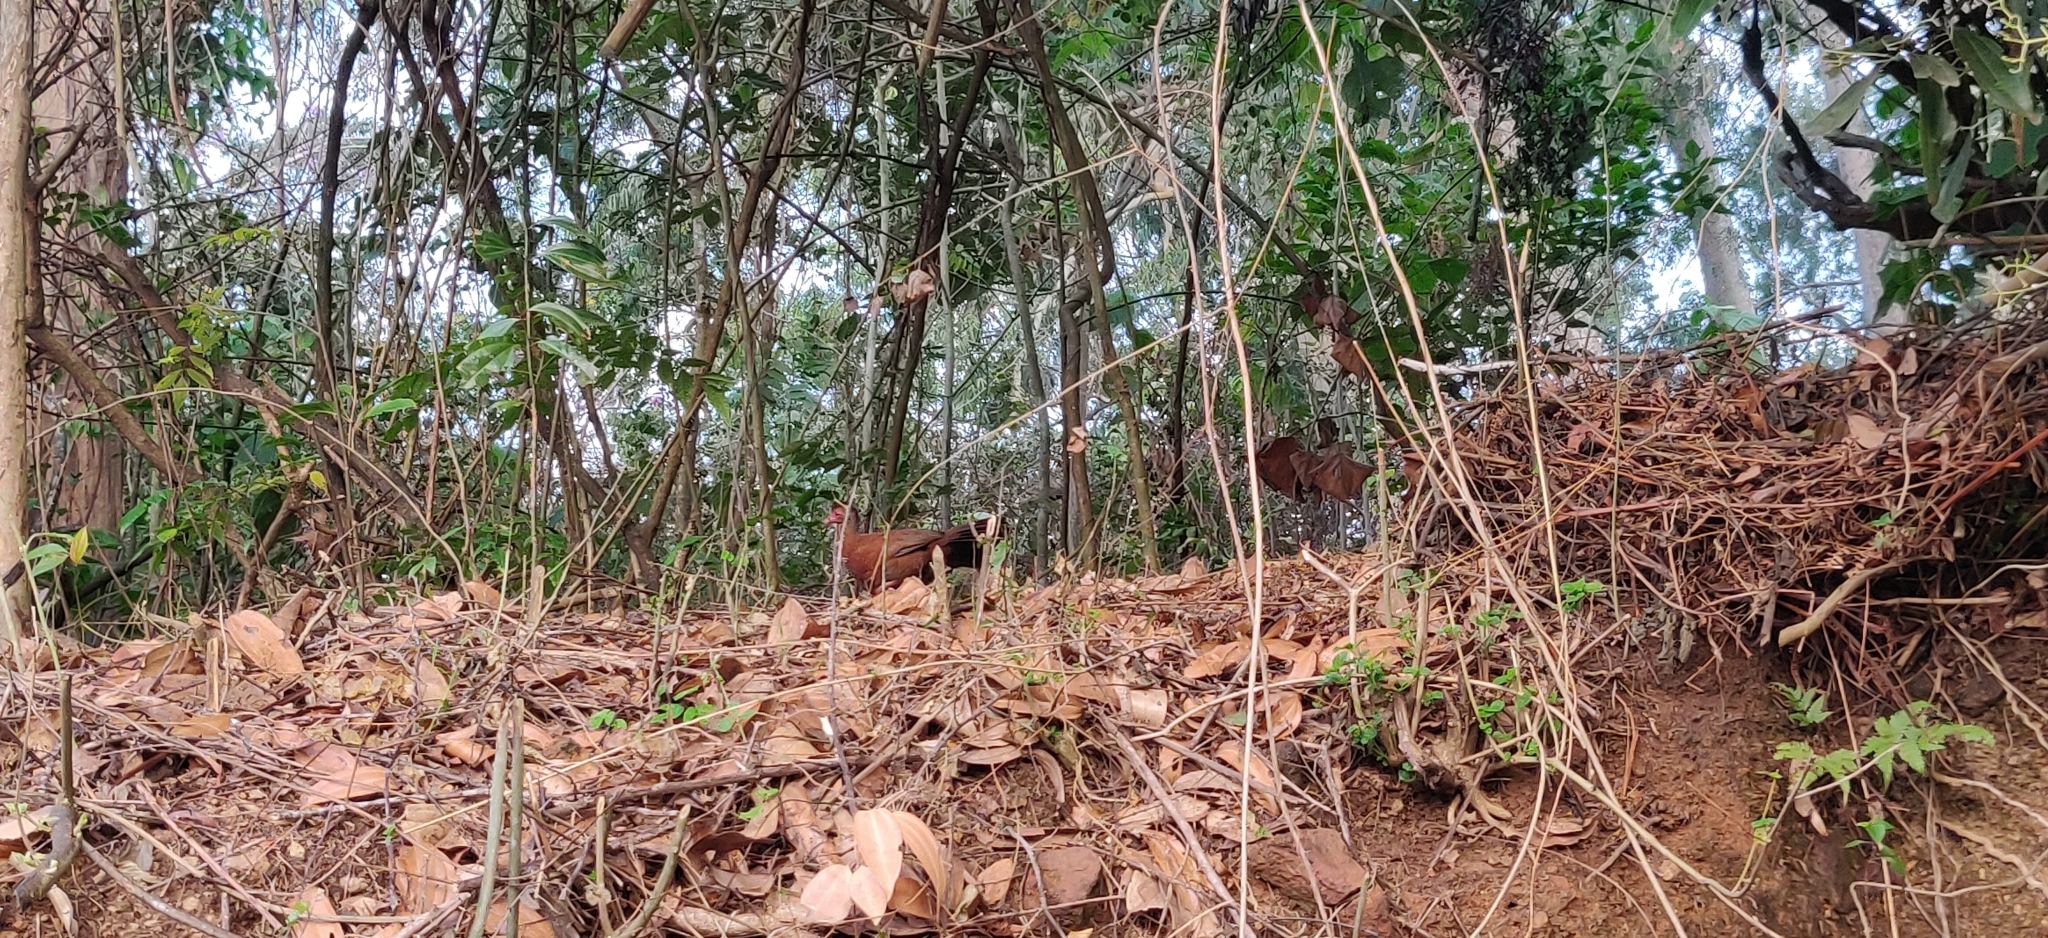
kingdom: Animalia
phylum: Chordata
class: Aves
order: Galliformes
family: Phasianidae
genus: Galloperdix
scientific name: Galloperdix spadicea
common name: Red spurfowl
